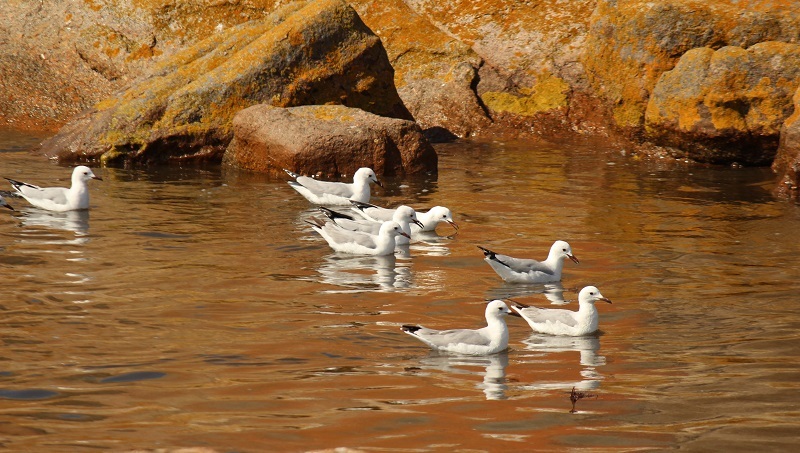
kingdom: Animalia
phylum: Chordata
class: Aves
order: Charadriiformes
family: Laridae
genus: Chroicocephalus
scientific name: Chroicocephalus hartlaubii
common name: Hartlaub's gull
